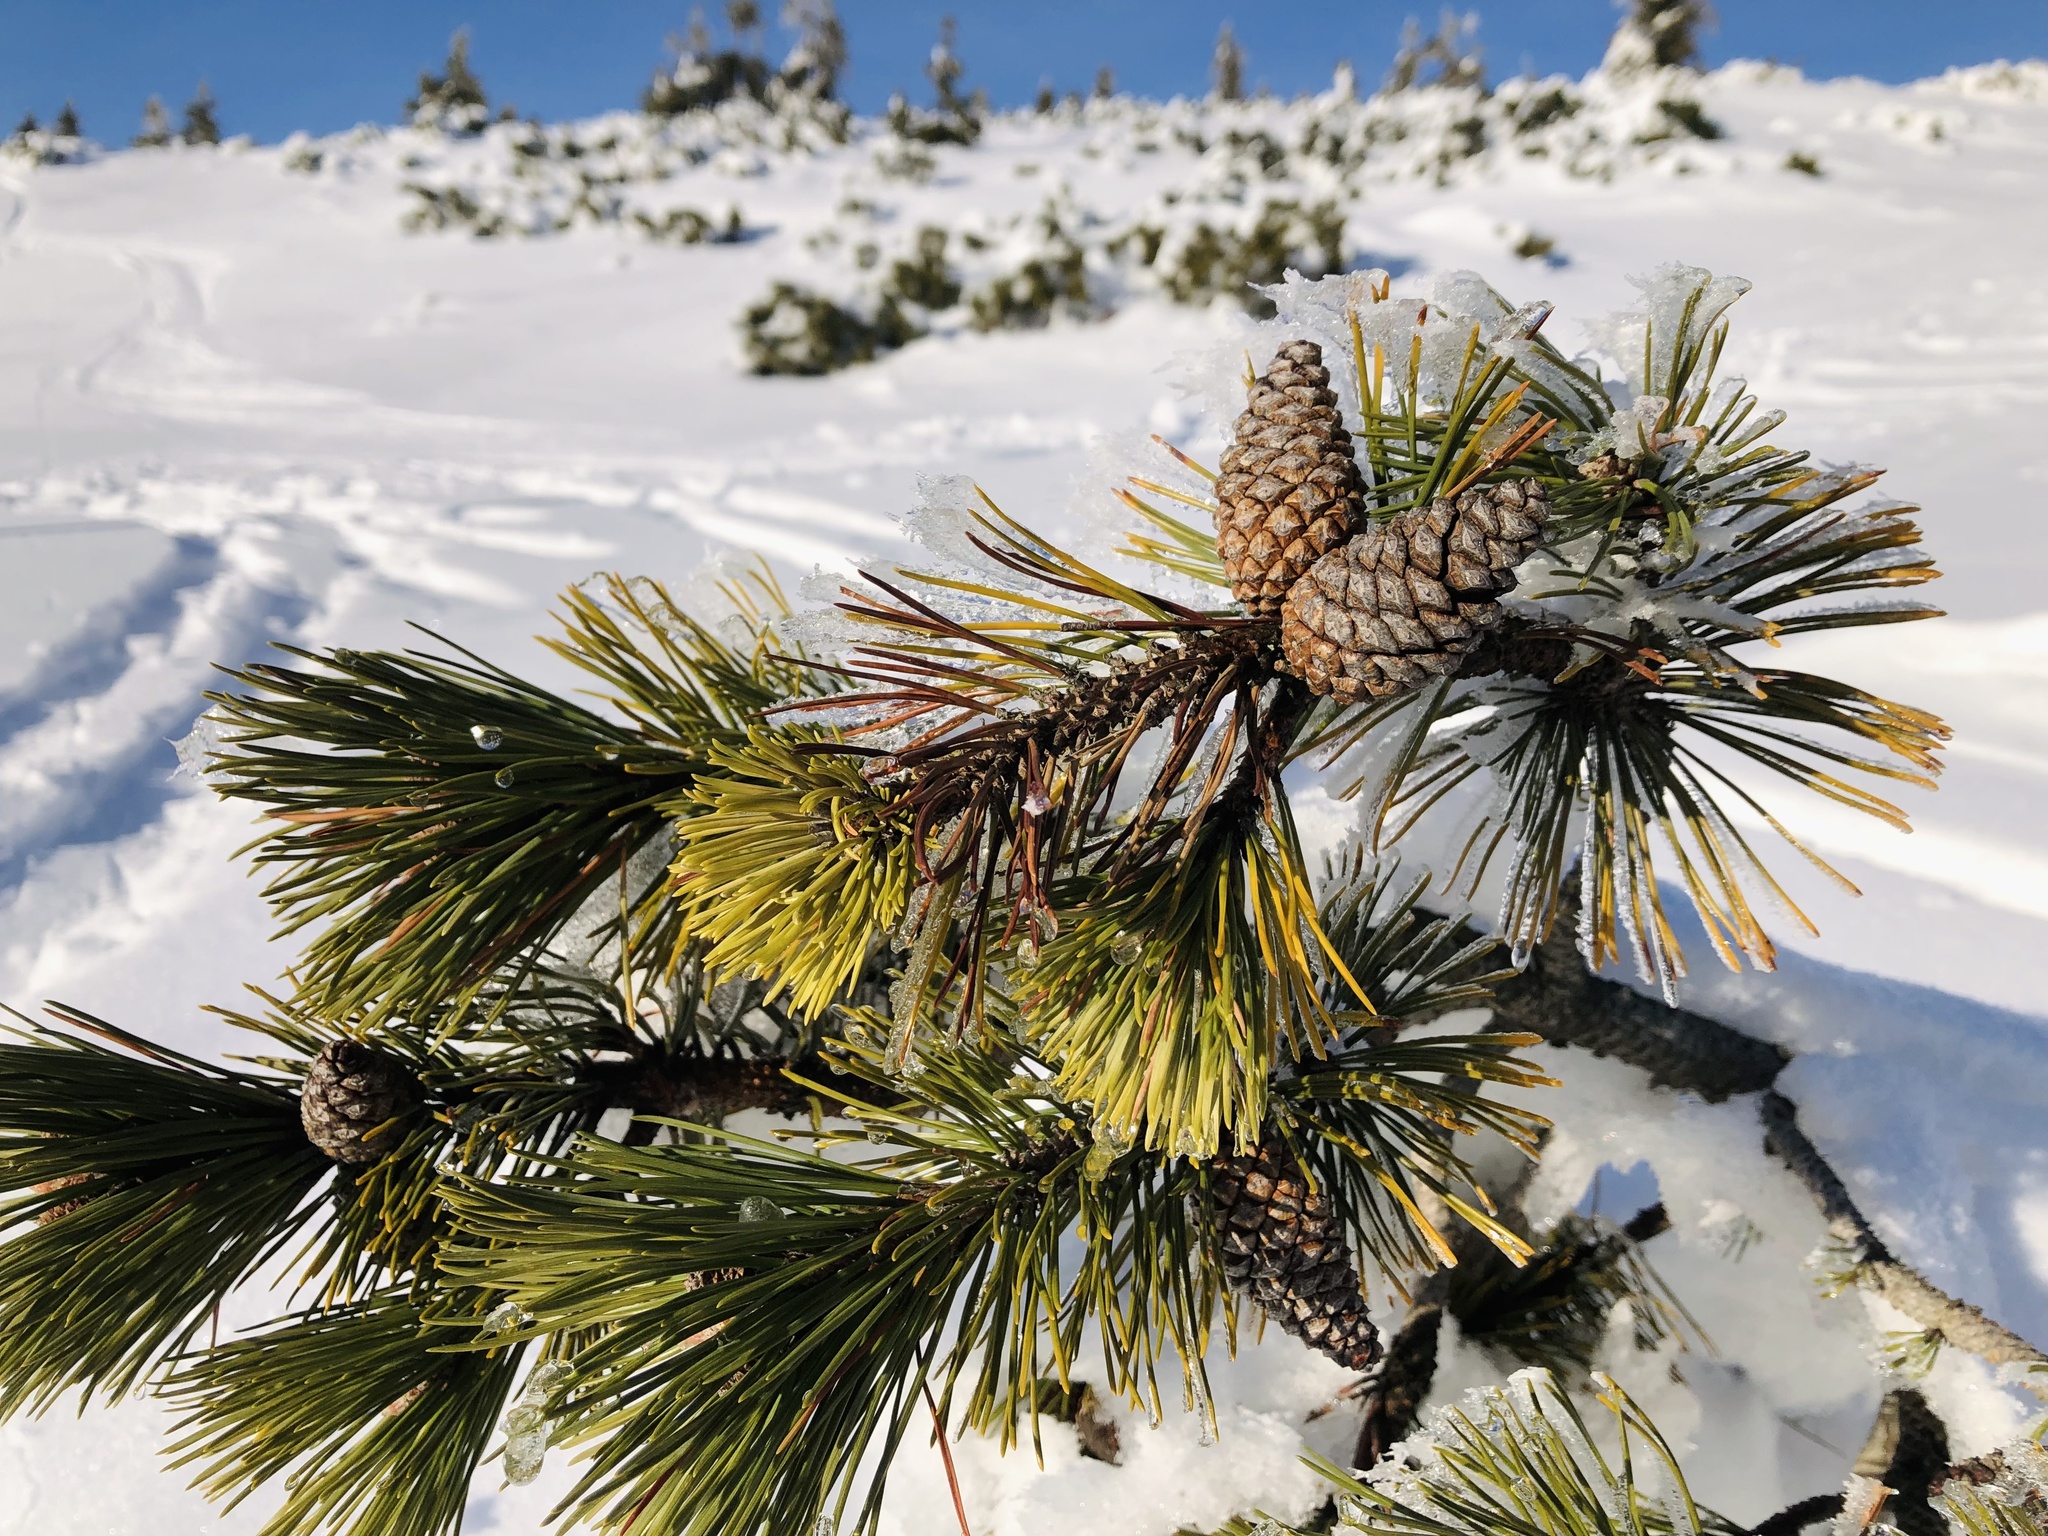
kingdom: Plantae
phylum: Tracheophyta
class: Pinopsida
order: Pinales
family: Pinaceae
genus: Pinus
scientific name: Pinus mugo
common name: Mugo pine
